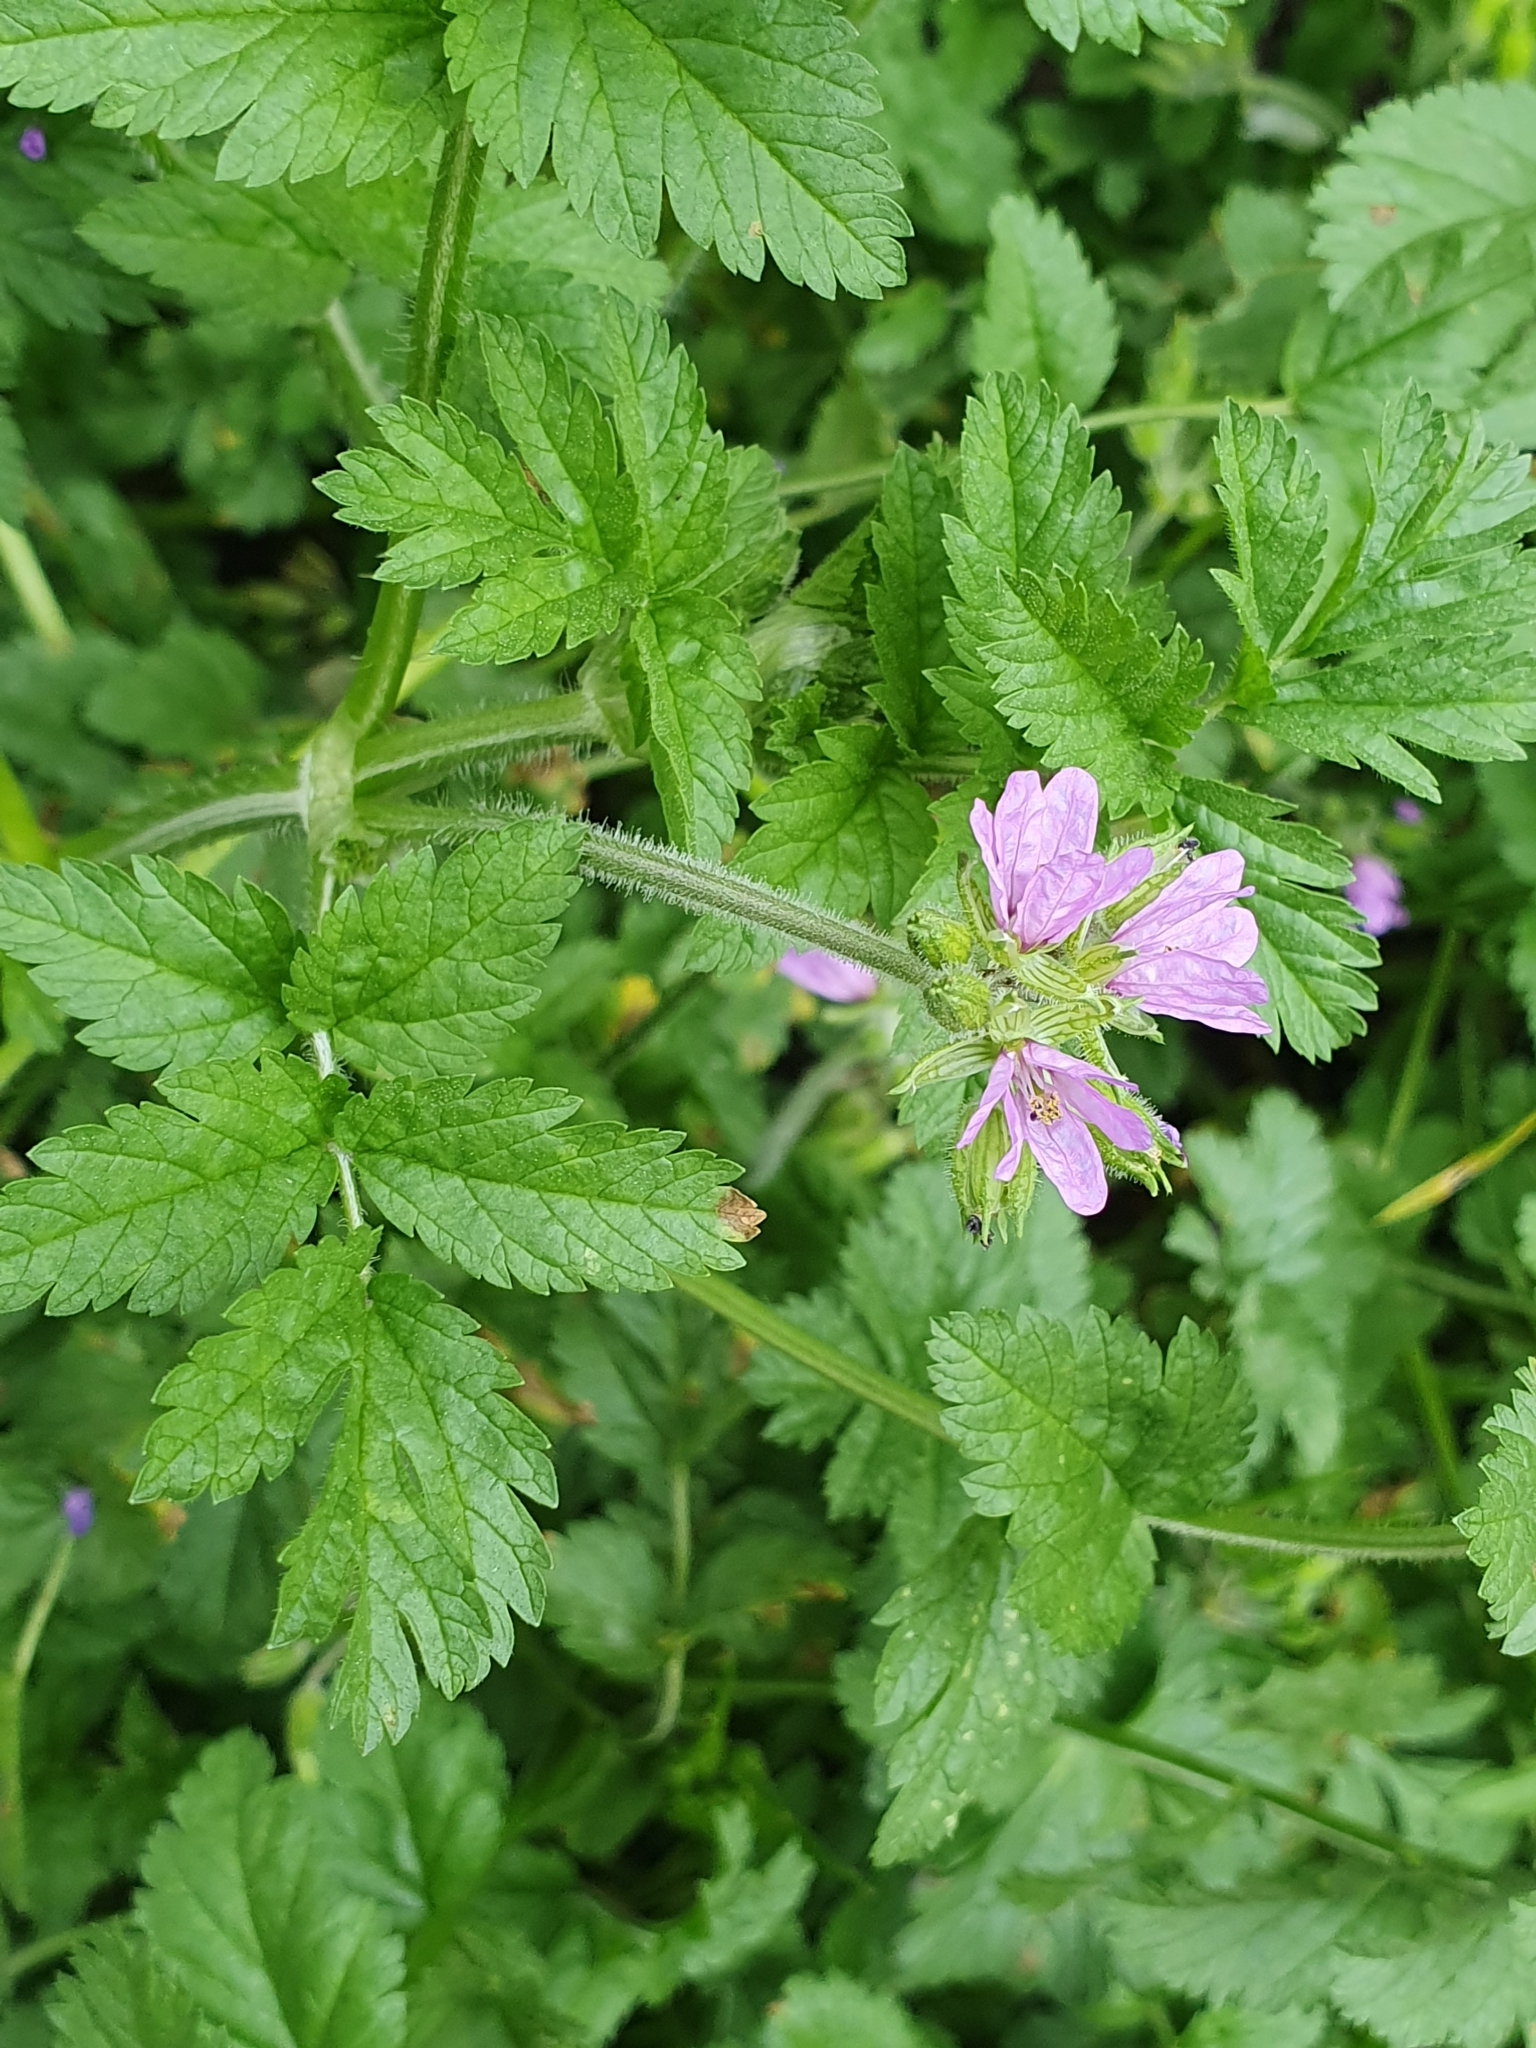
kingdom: Plantae
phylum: Tracheophyta
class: Magnoliopsida
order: Geraniales
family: Geraniaceae
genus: Erodium
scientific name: Erodium moschatum
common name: Musk stork's-bill
